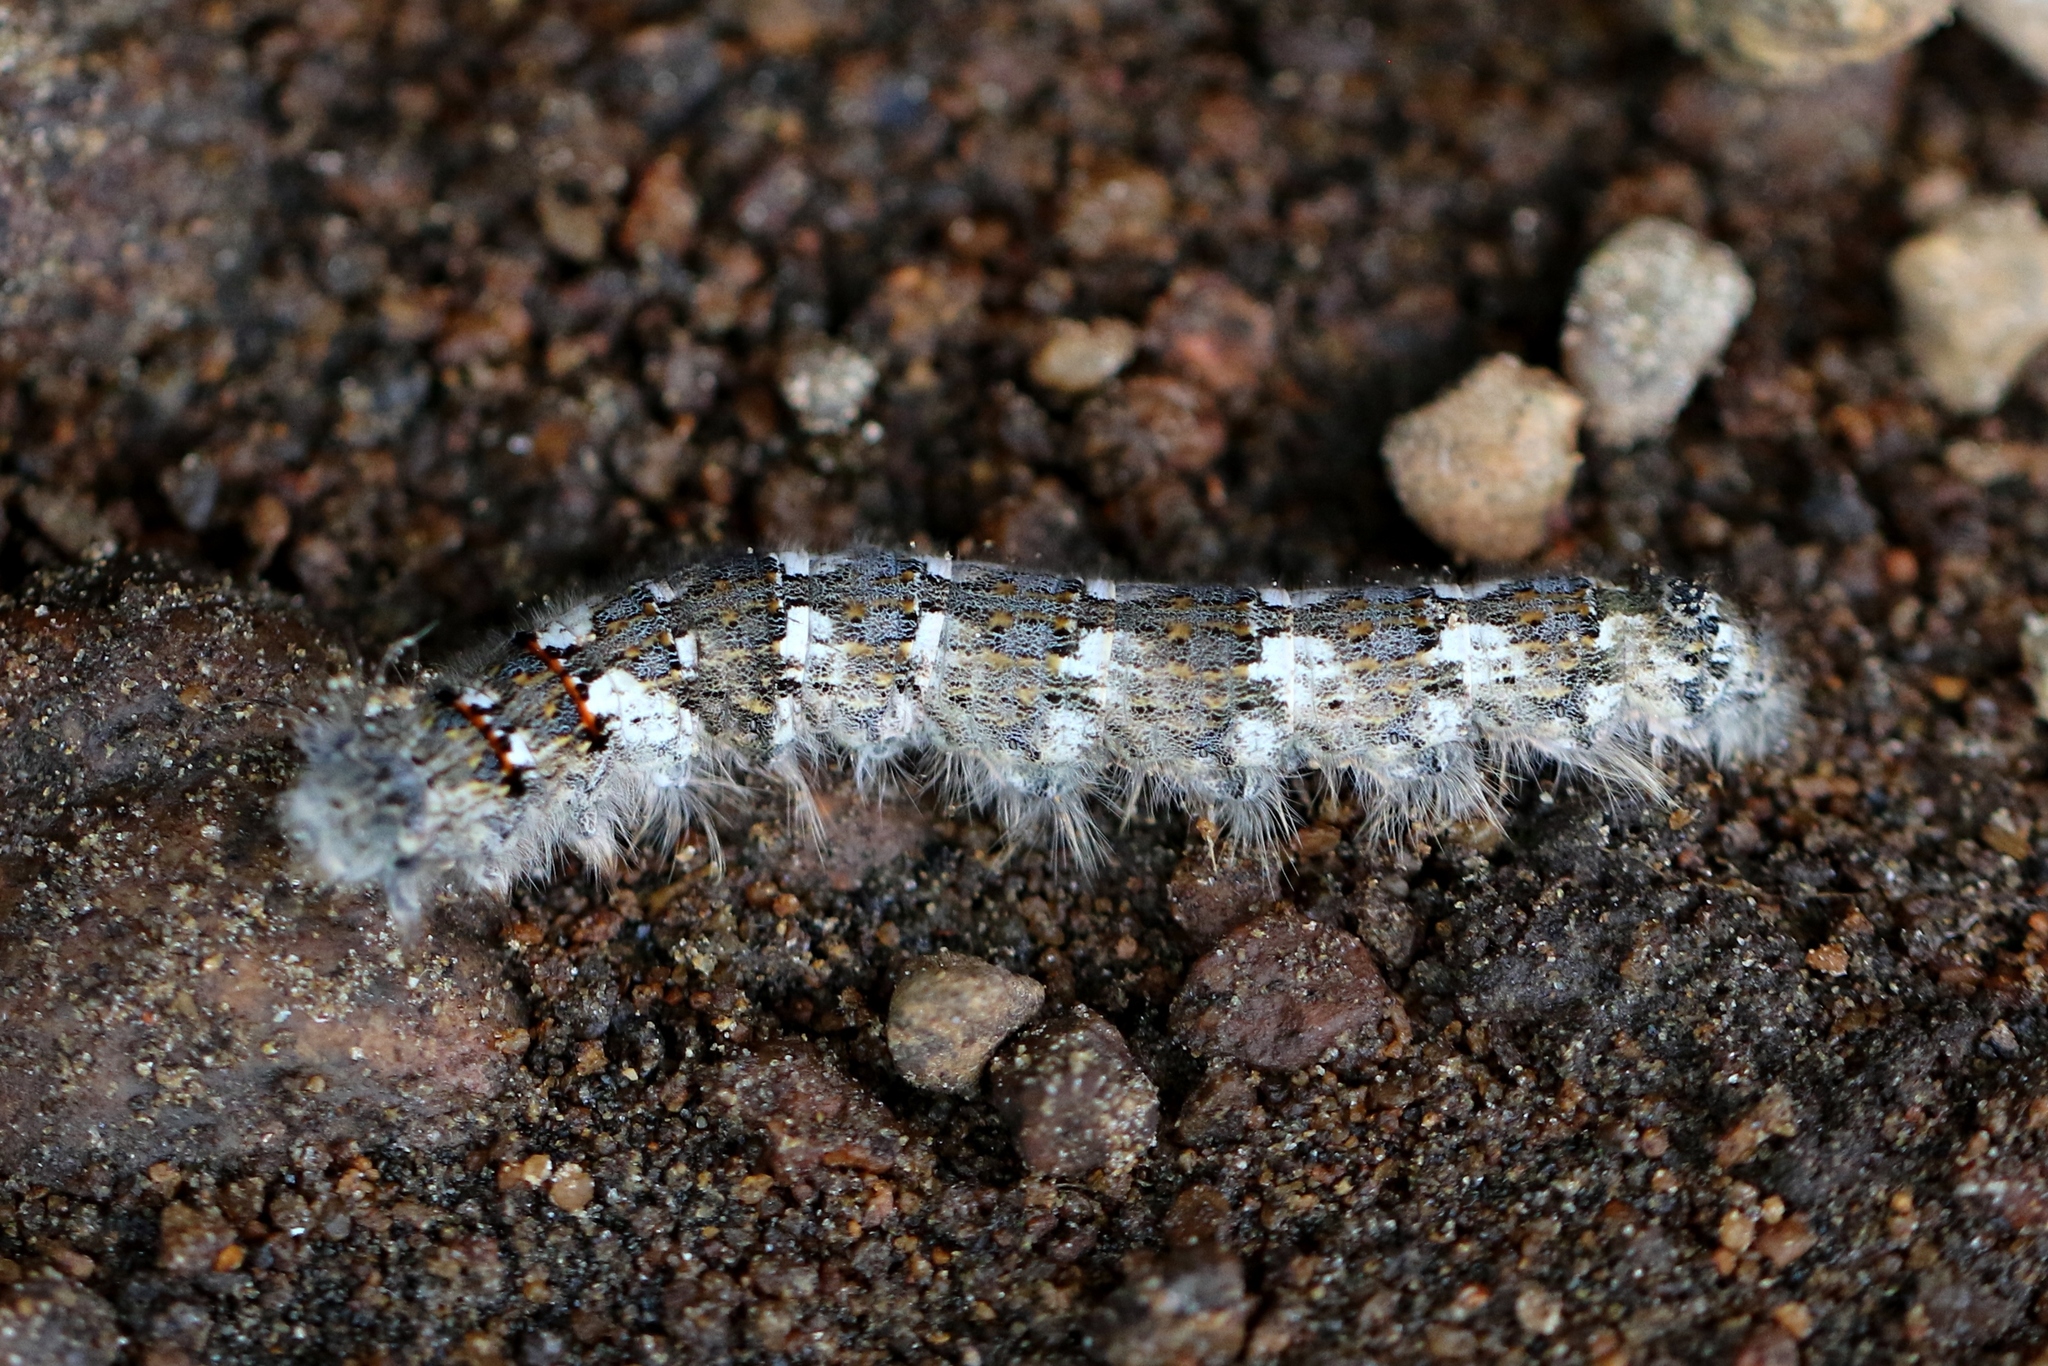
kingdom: Animalia
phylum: Arthropoda
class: Insecta
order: Lepidoptera
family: Lasiocampidae
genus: Phyllodesma
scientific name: Phyllodesma americana
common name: American lappet moth
